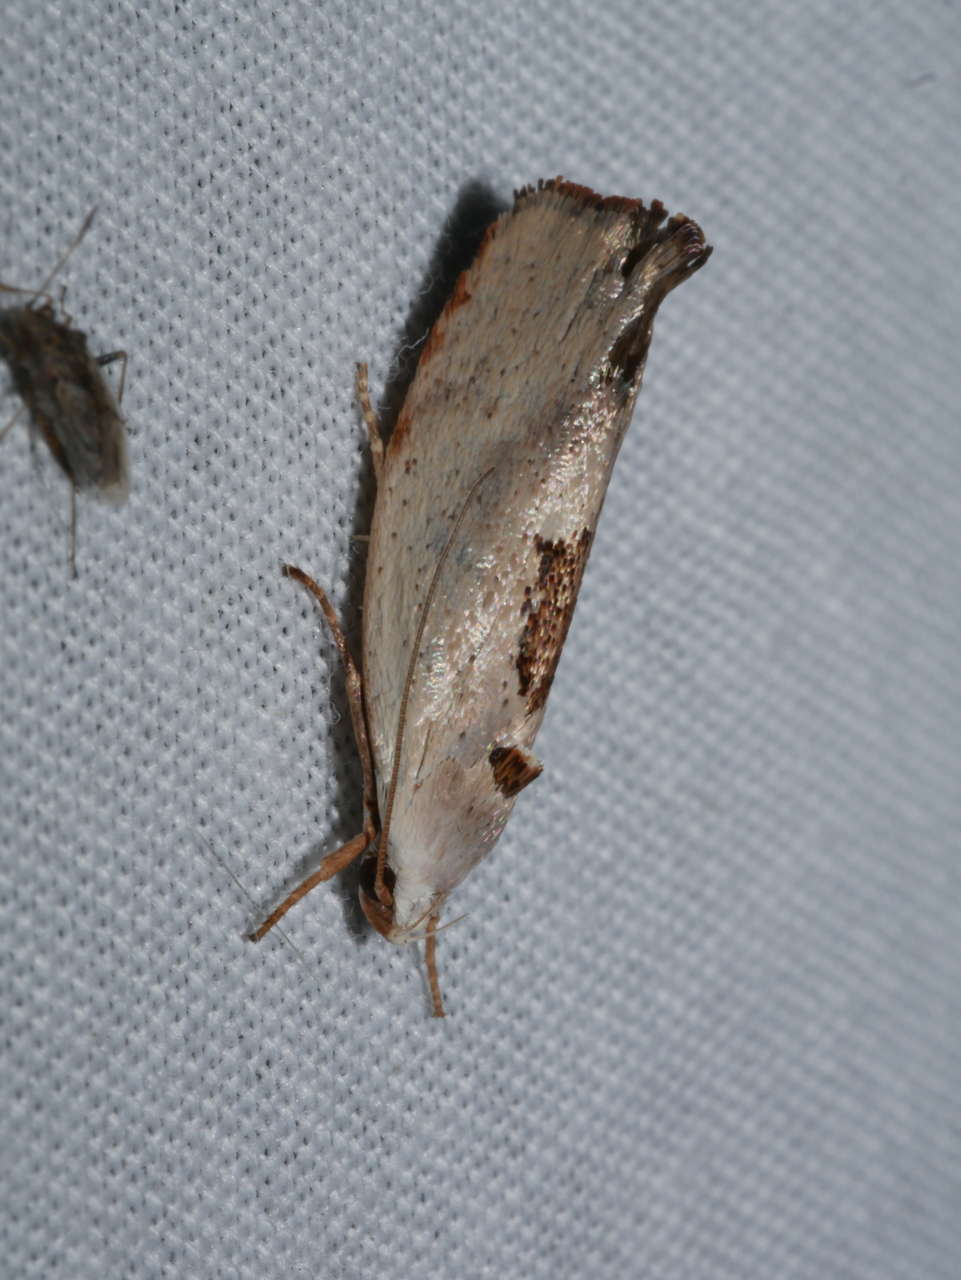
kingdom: Animalia
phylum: Arthropoda
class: Insecta
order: Lepidoptera
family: Xyloryctidae
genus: Tymbophora
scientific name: Tymbophora peltastis
